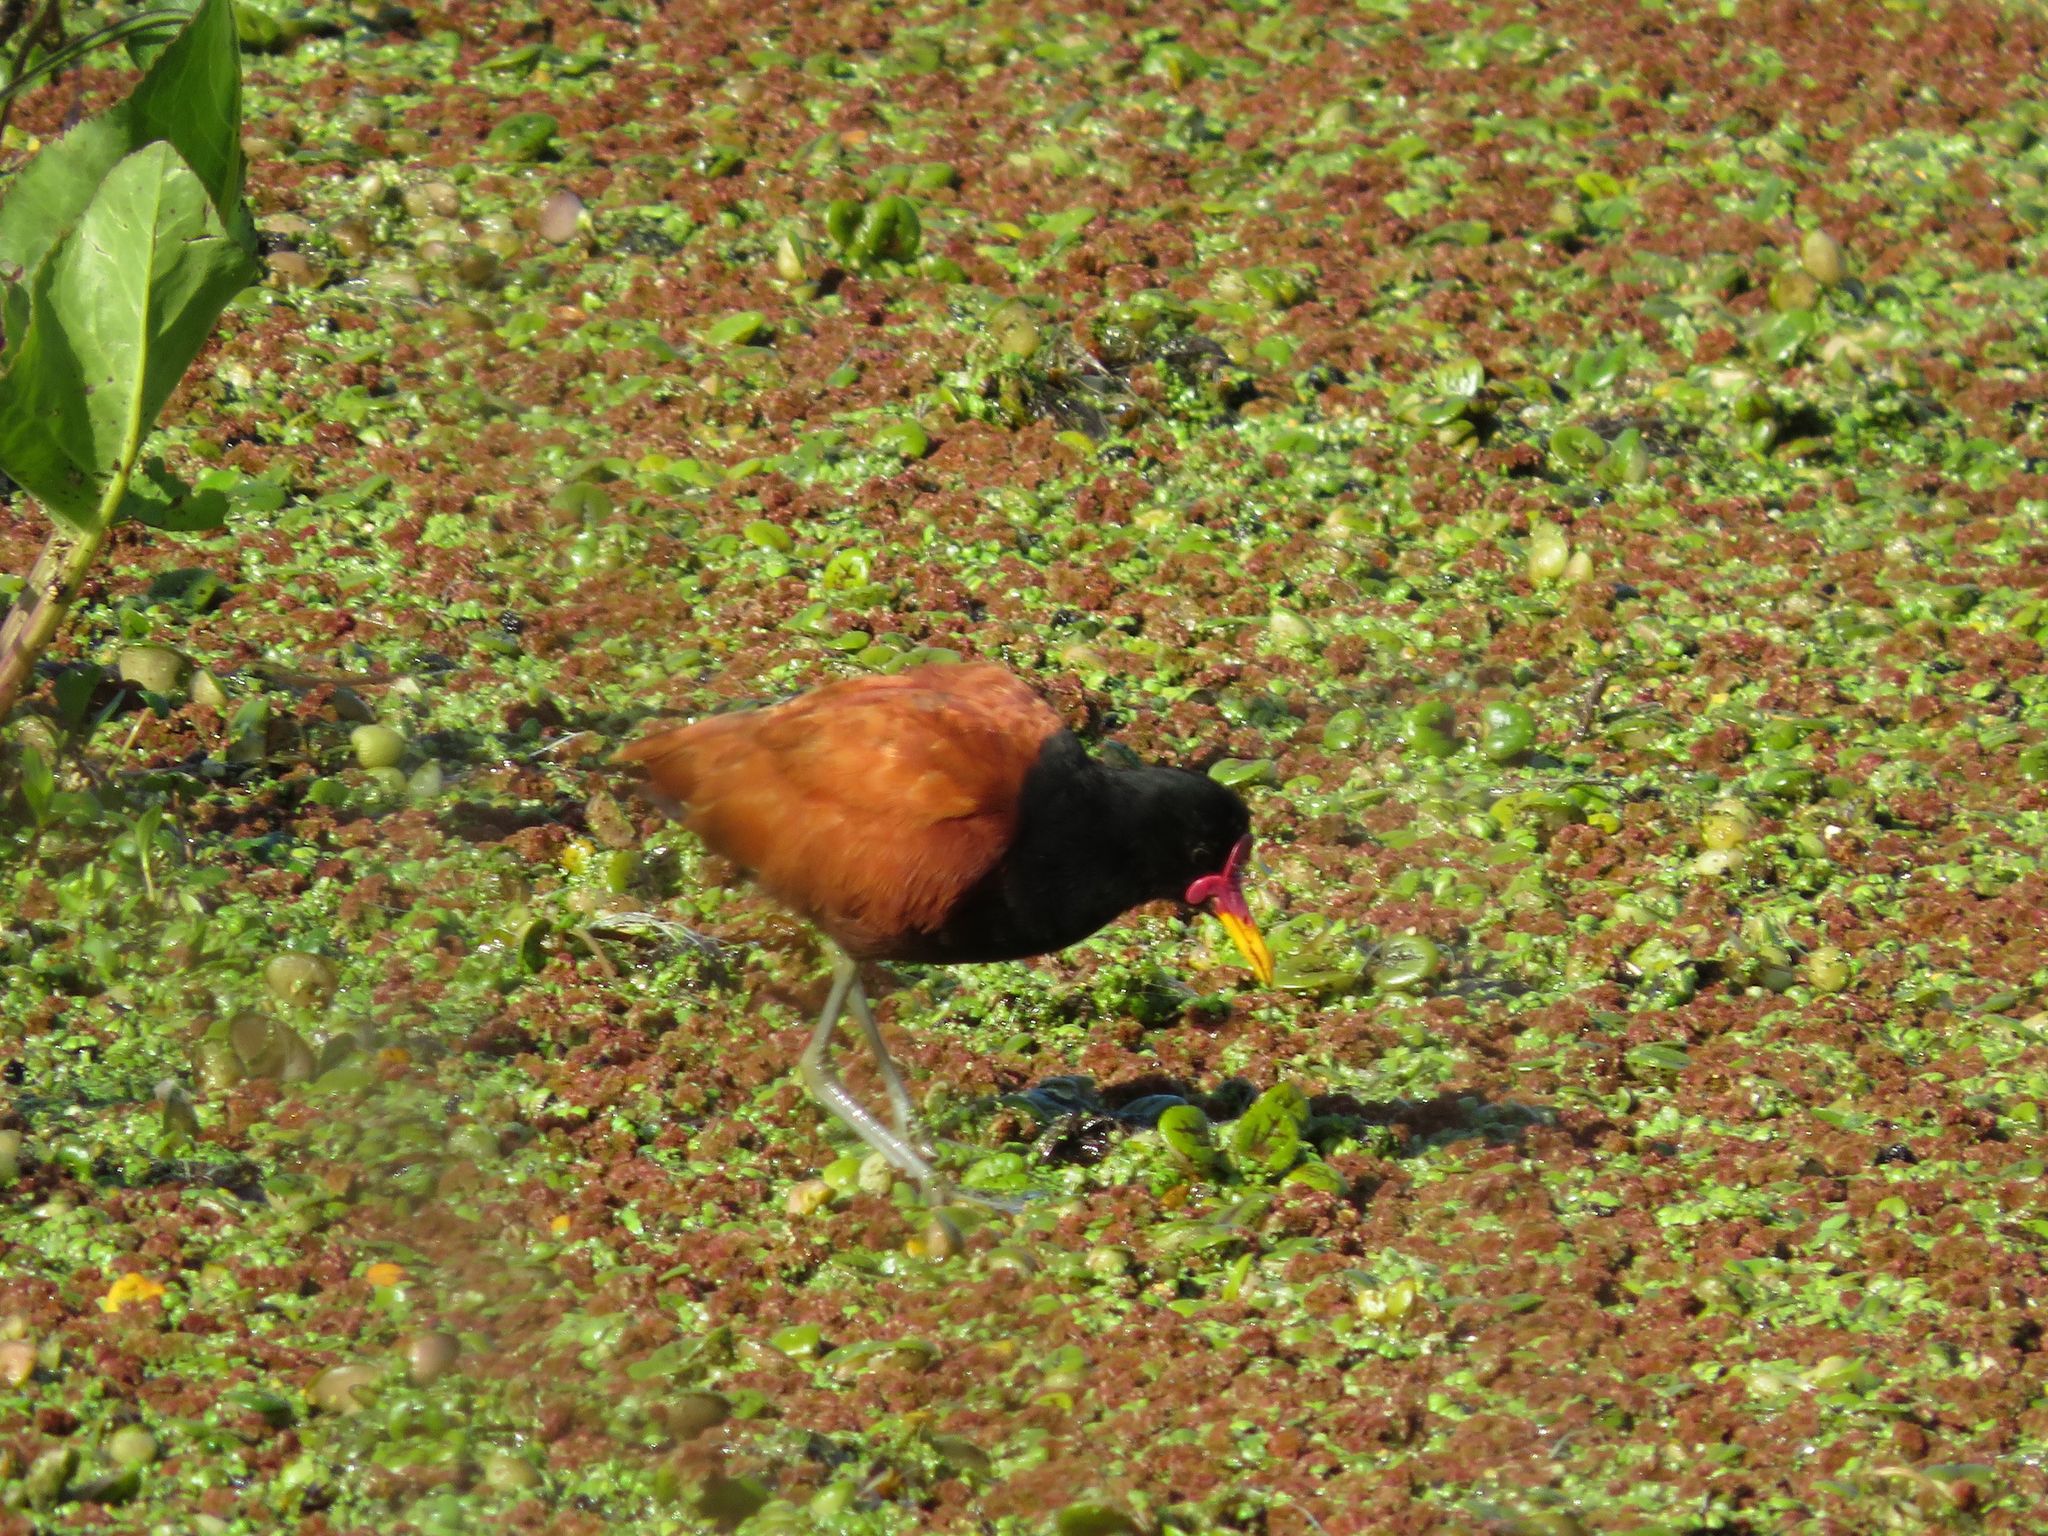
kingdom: Animalia
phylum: Chordata
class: Aves
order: Gruiformes
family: Rallidae
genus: Fulica
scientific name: Fulica rufifrons
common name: Red-fronted coot
